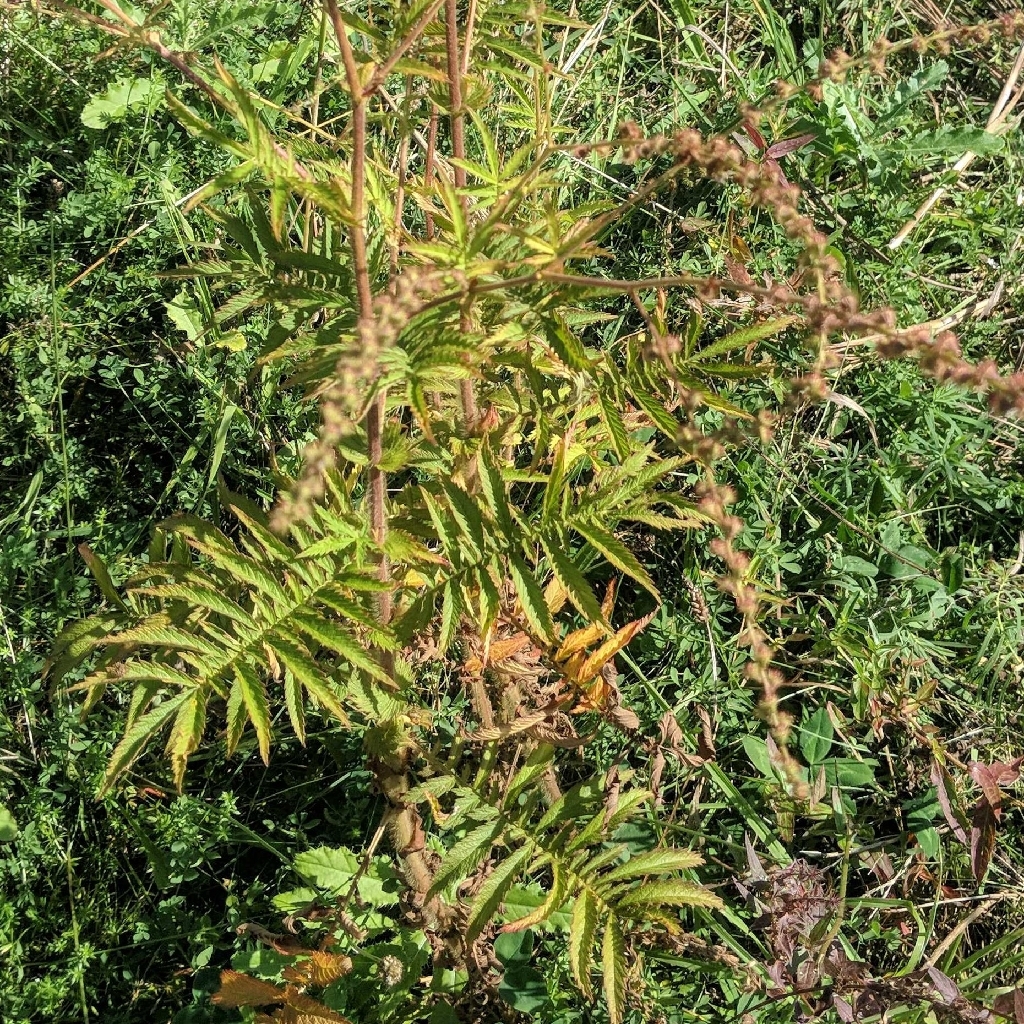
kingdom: Plantae
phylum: Tracheophyta
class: Magnoliopsida
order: Rosales
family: Rosaceae
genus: Agrimonia
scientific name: Agrimonia parviflora
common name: Harvest-lice
